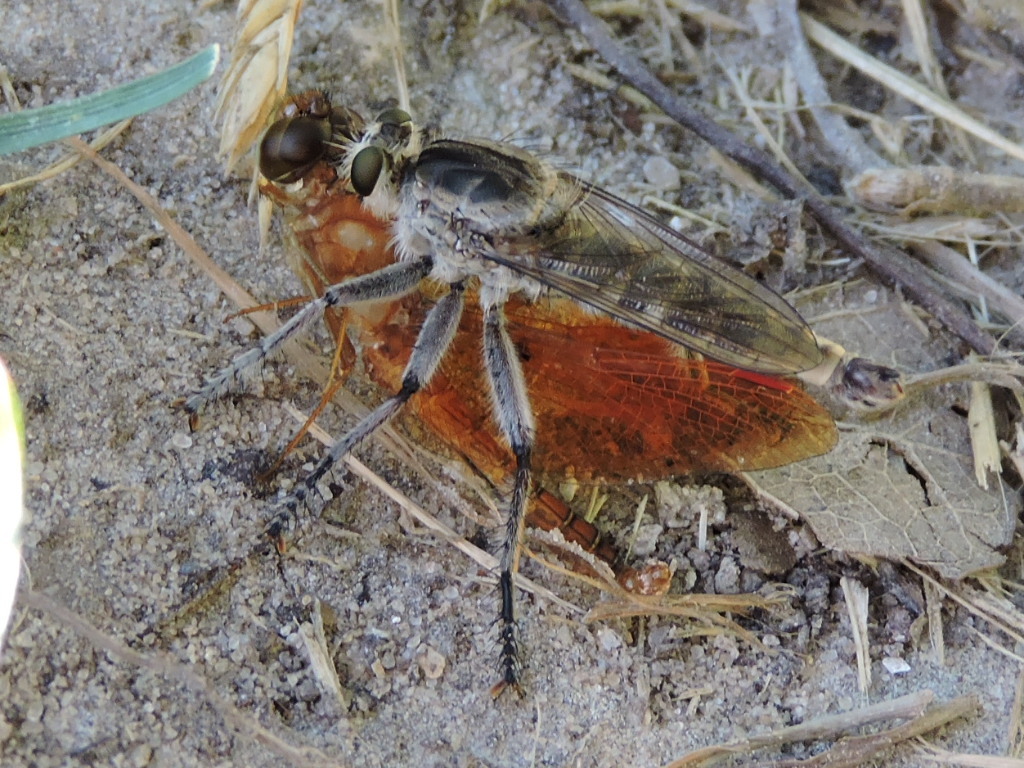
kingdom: Animalia
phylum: Arthropoda
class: Insecta
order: Diptera
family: Asilidae
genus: Triorla
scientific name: Triorla interrupta
